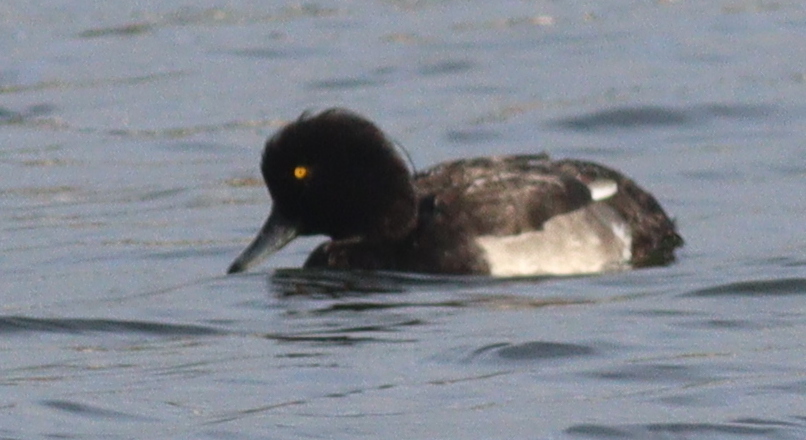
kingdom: Animalia
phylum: Chordata
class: Aves
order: Anseriformes
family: Anatidae
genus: Aythya
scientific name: Aythya fuligula
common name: Tufted duck
